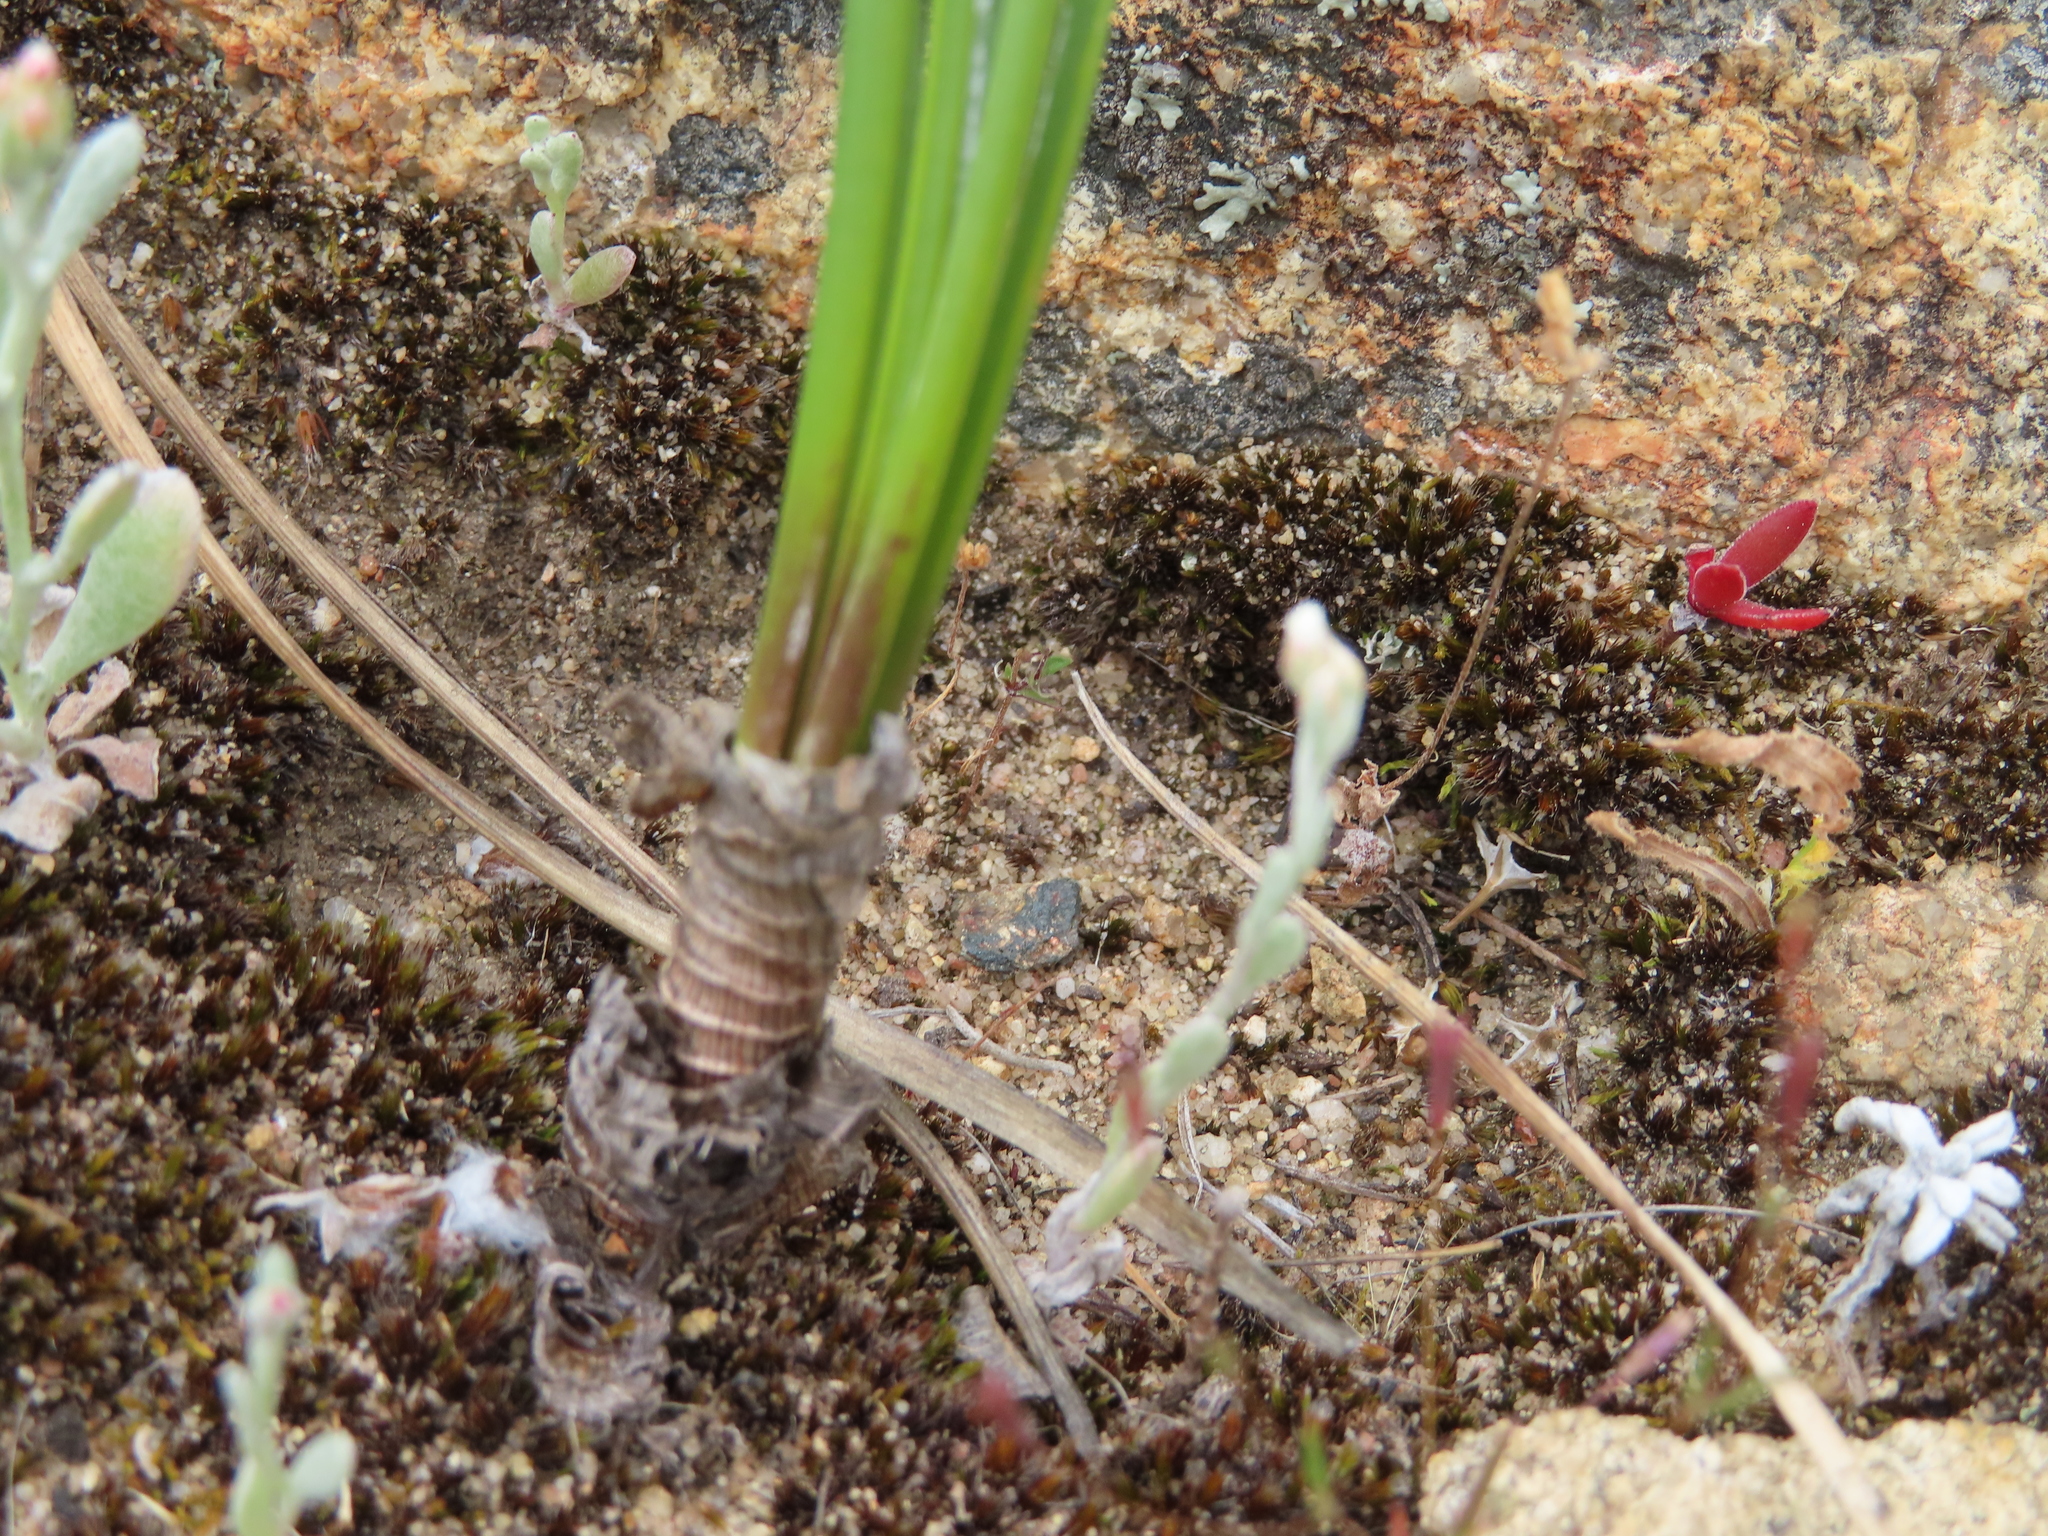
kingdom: Plantae
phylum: Tracheophyta
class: Liliopsida
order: Asparagales
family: Asparagaceae
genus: Drimia
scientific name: Drimia exuviata
